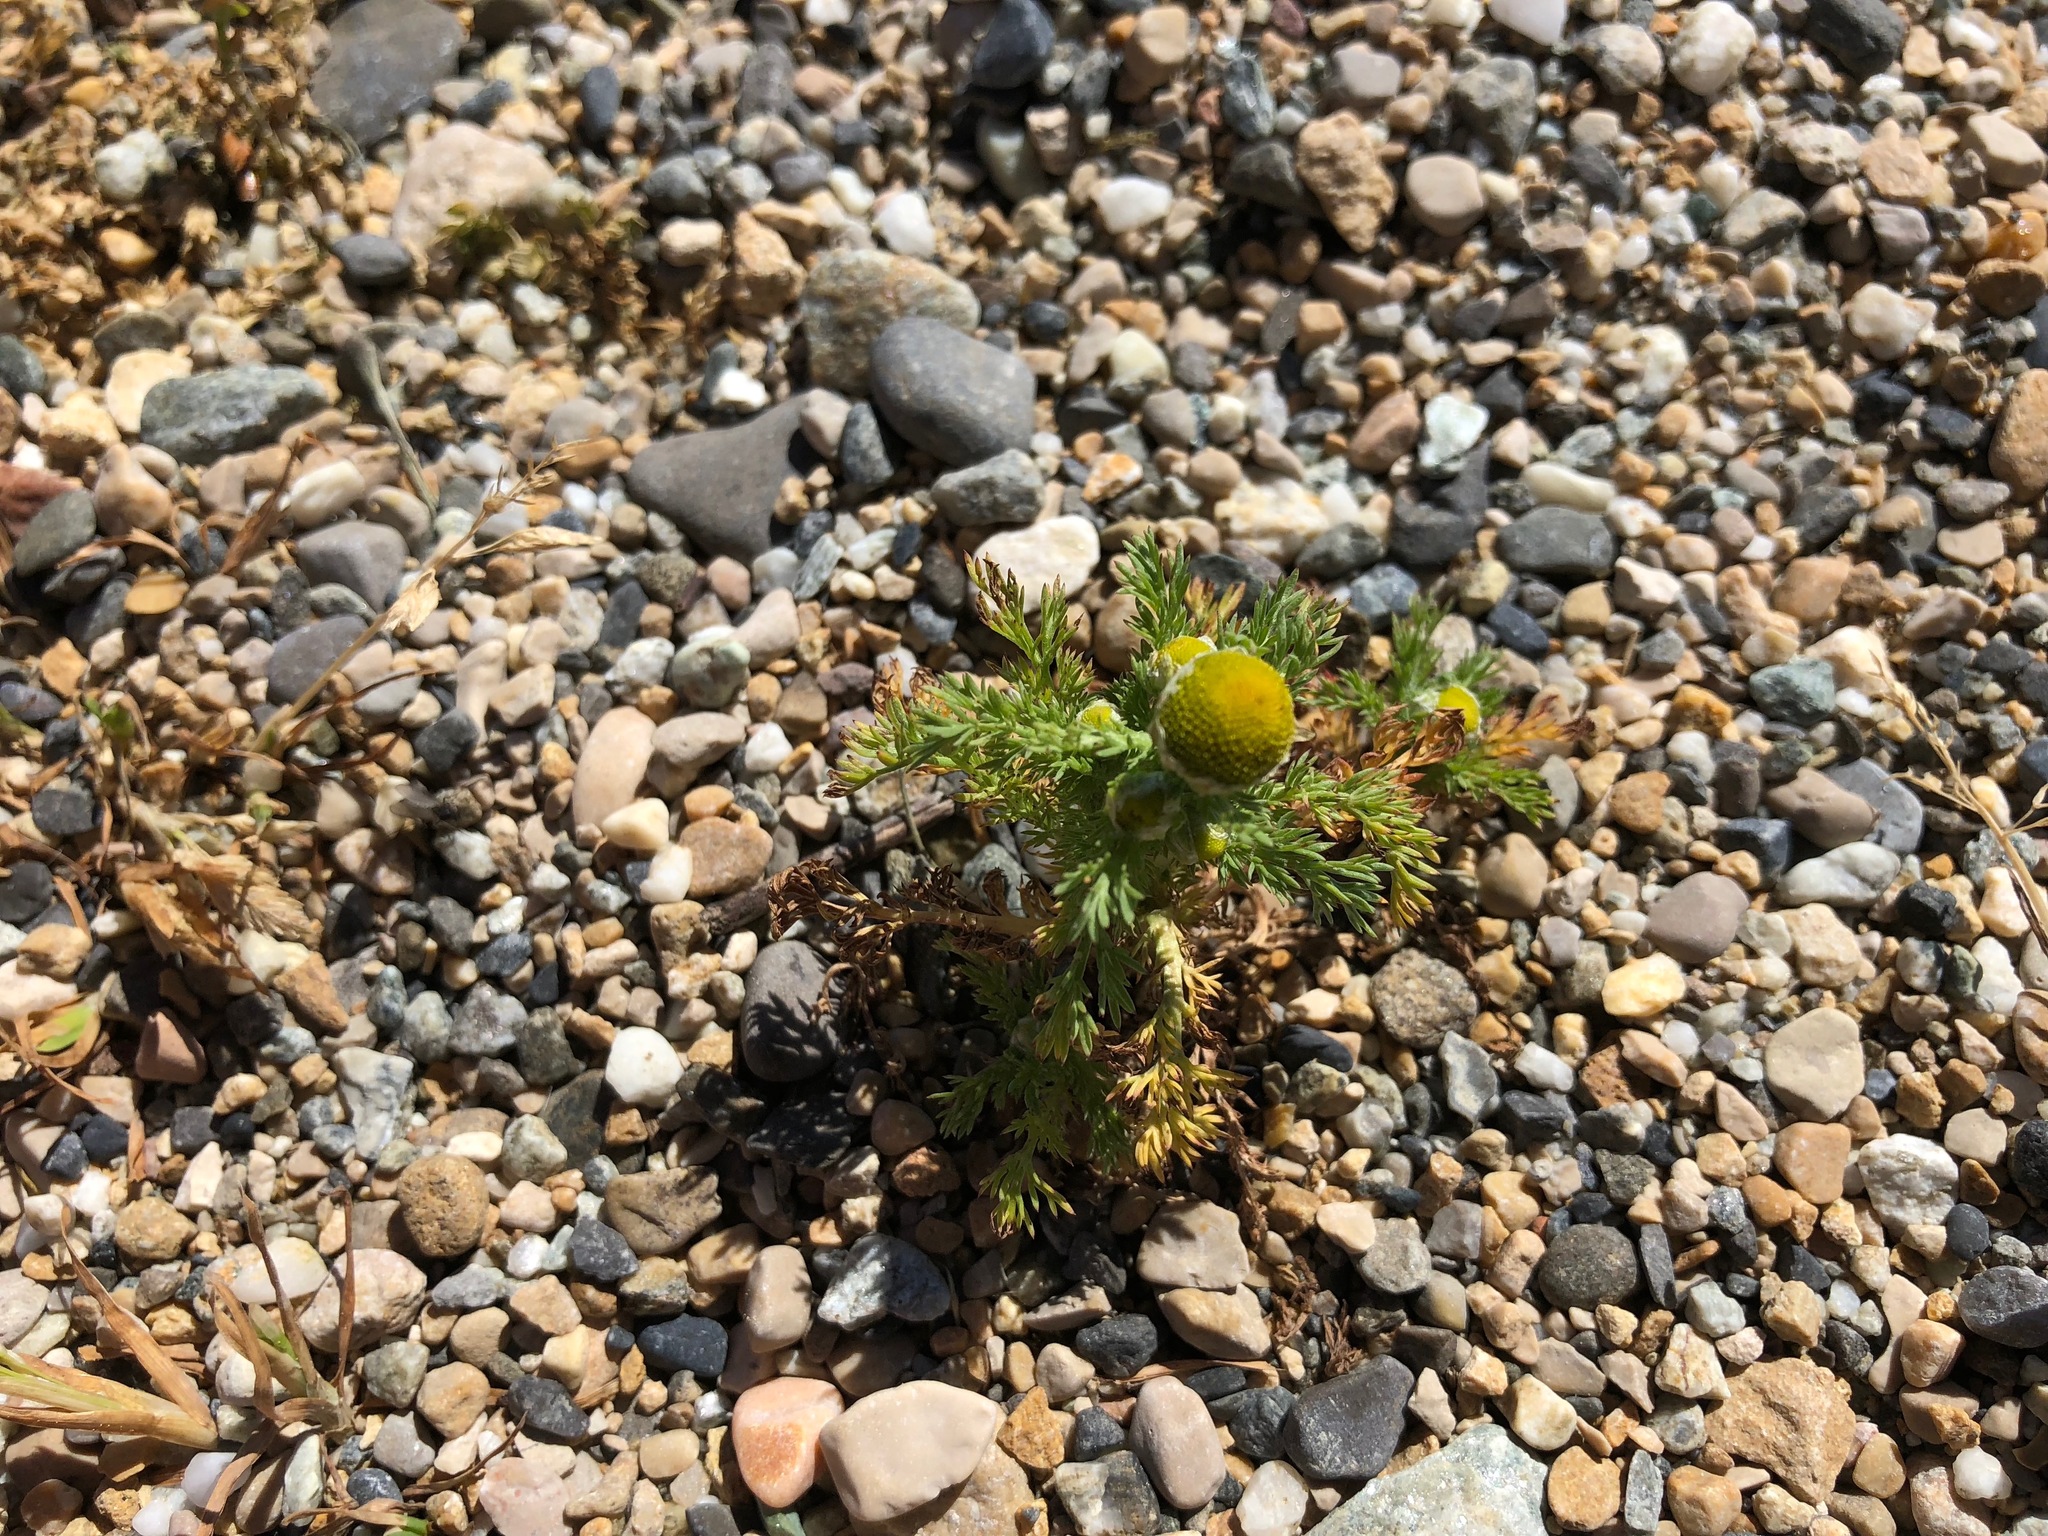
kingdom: Plantae
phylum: Tracheophyta
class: Magnoliopsida
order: Asterales
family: Asteraceae
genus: Matricaria
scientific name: Matricaria discoidea
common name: Disc mayweed
